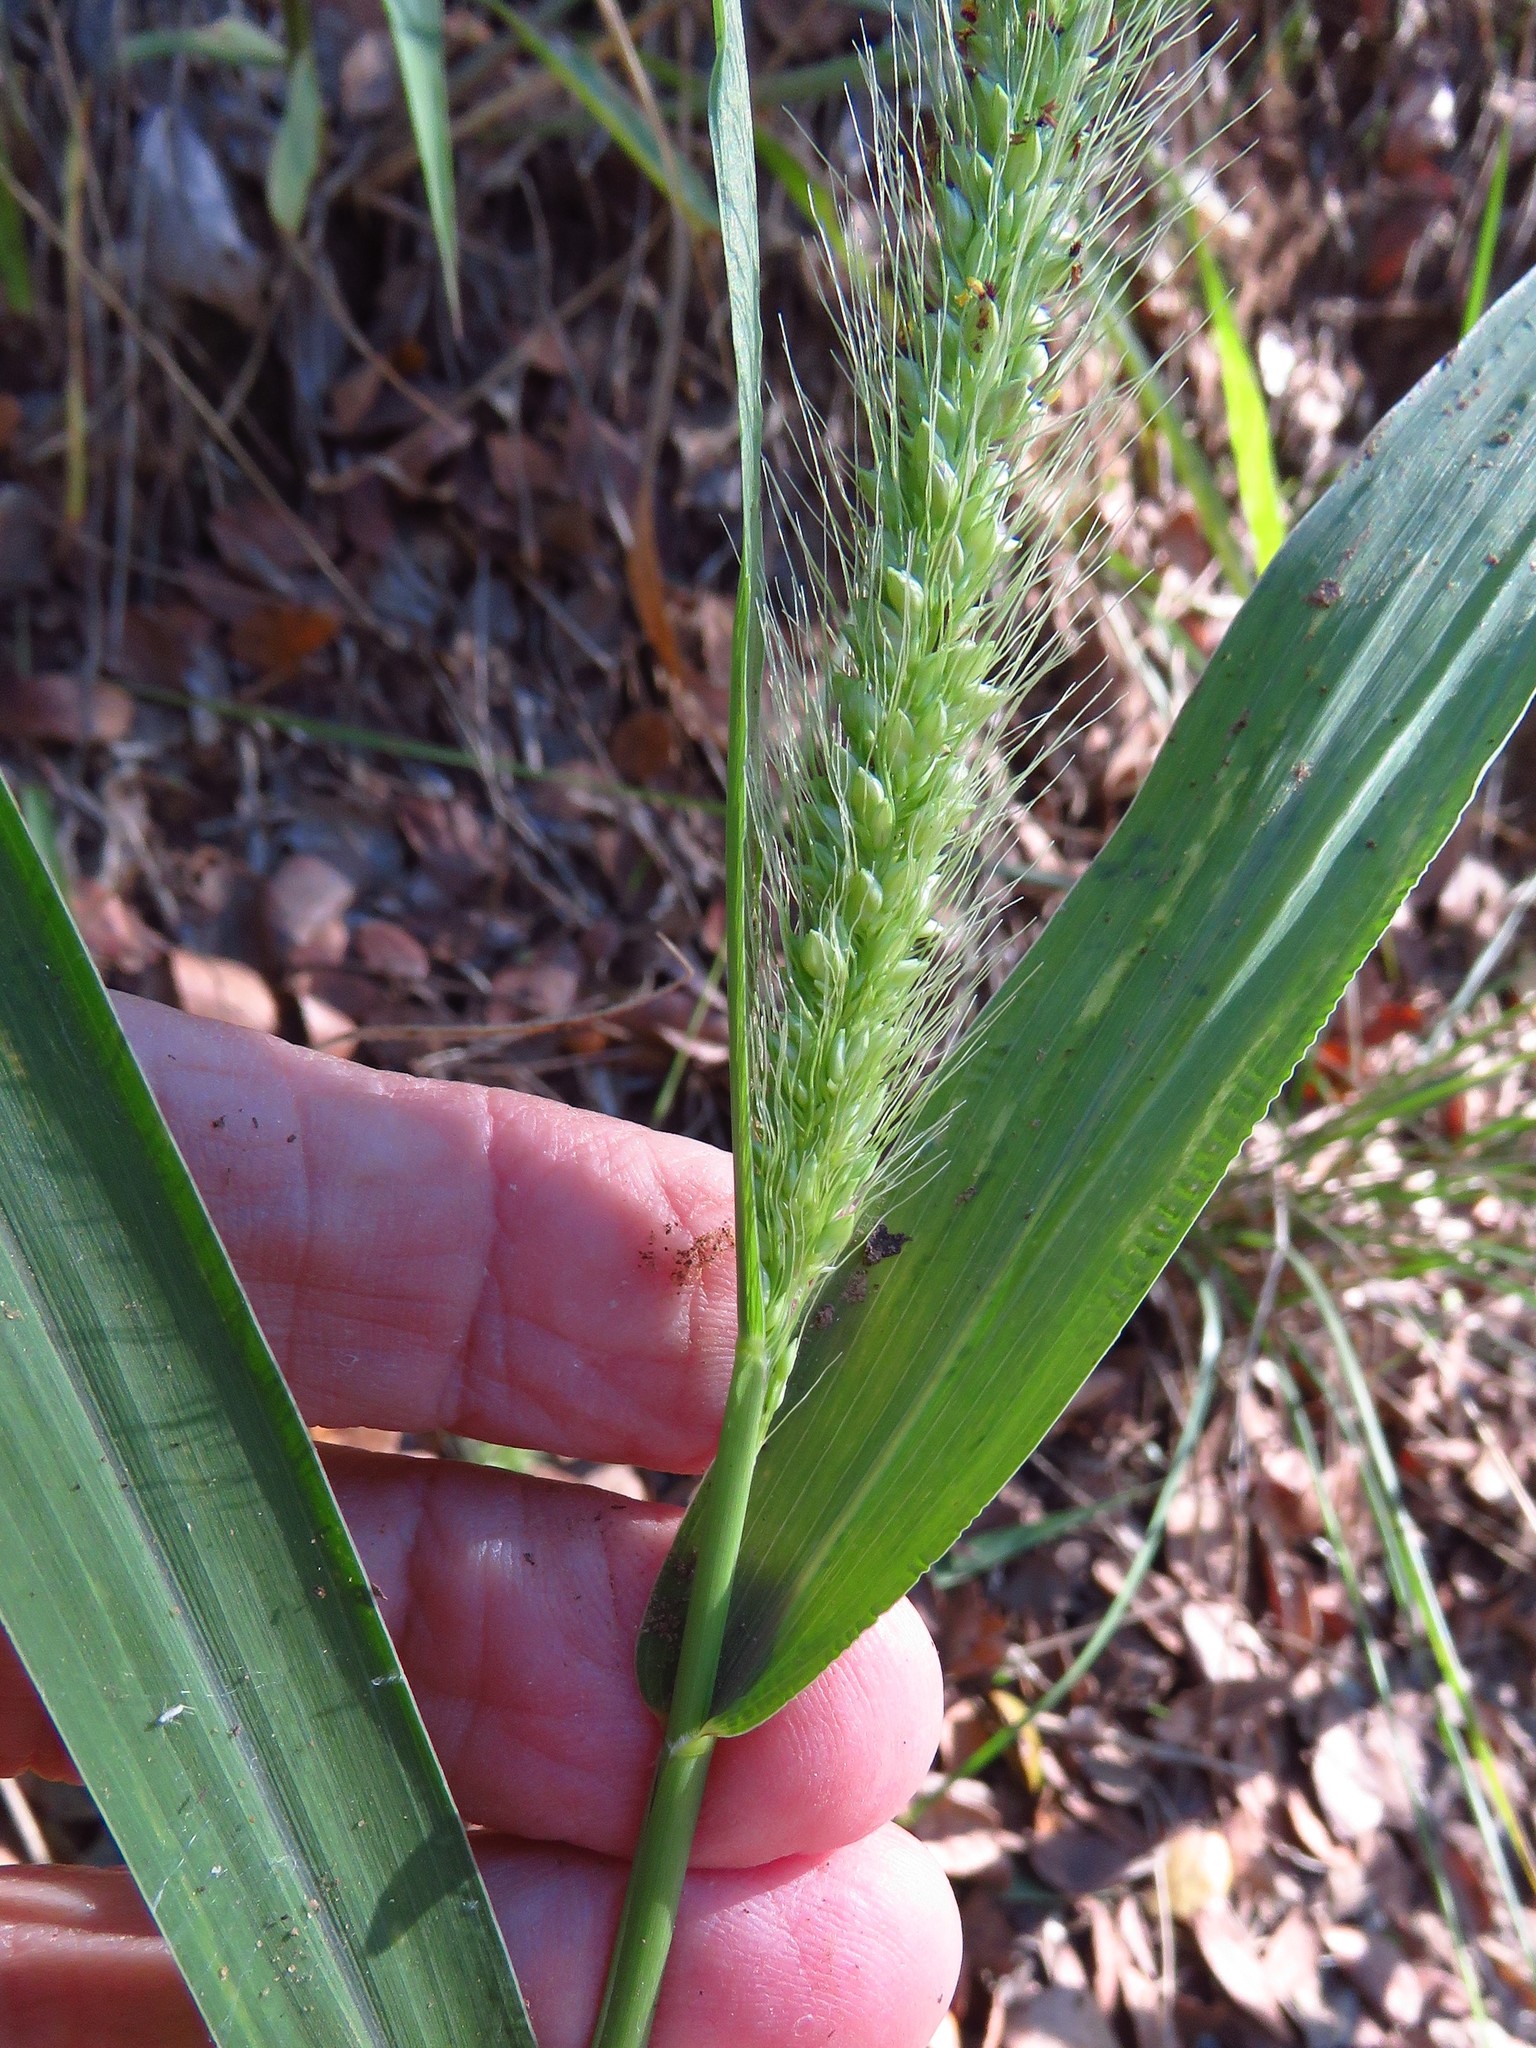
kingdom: Plantae
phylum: Tracheophyta
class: Liliopsida
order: Poales
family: Poaceae
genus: Setaria
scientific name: Setaria scheelei
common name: Southwestern bristle grass
